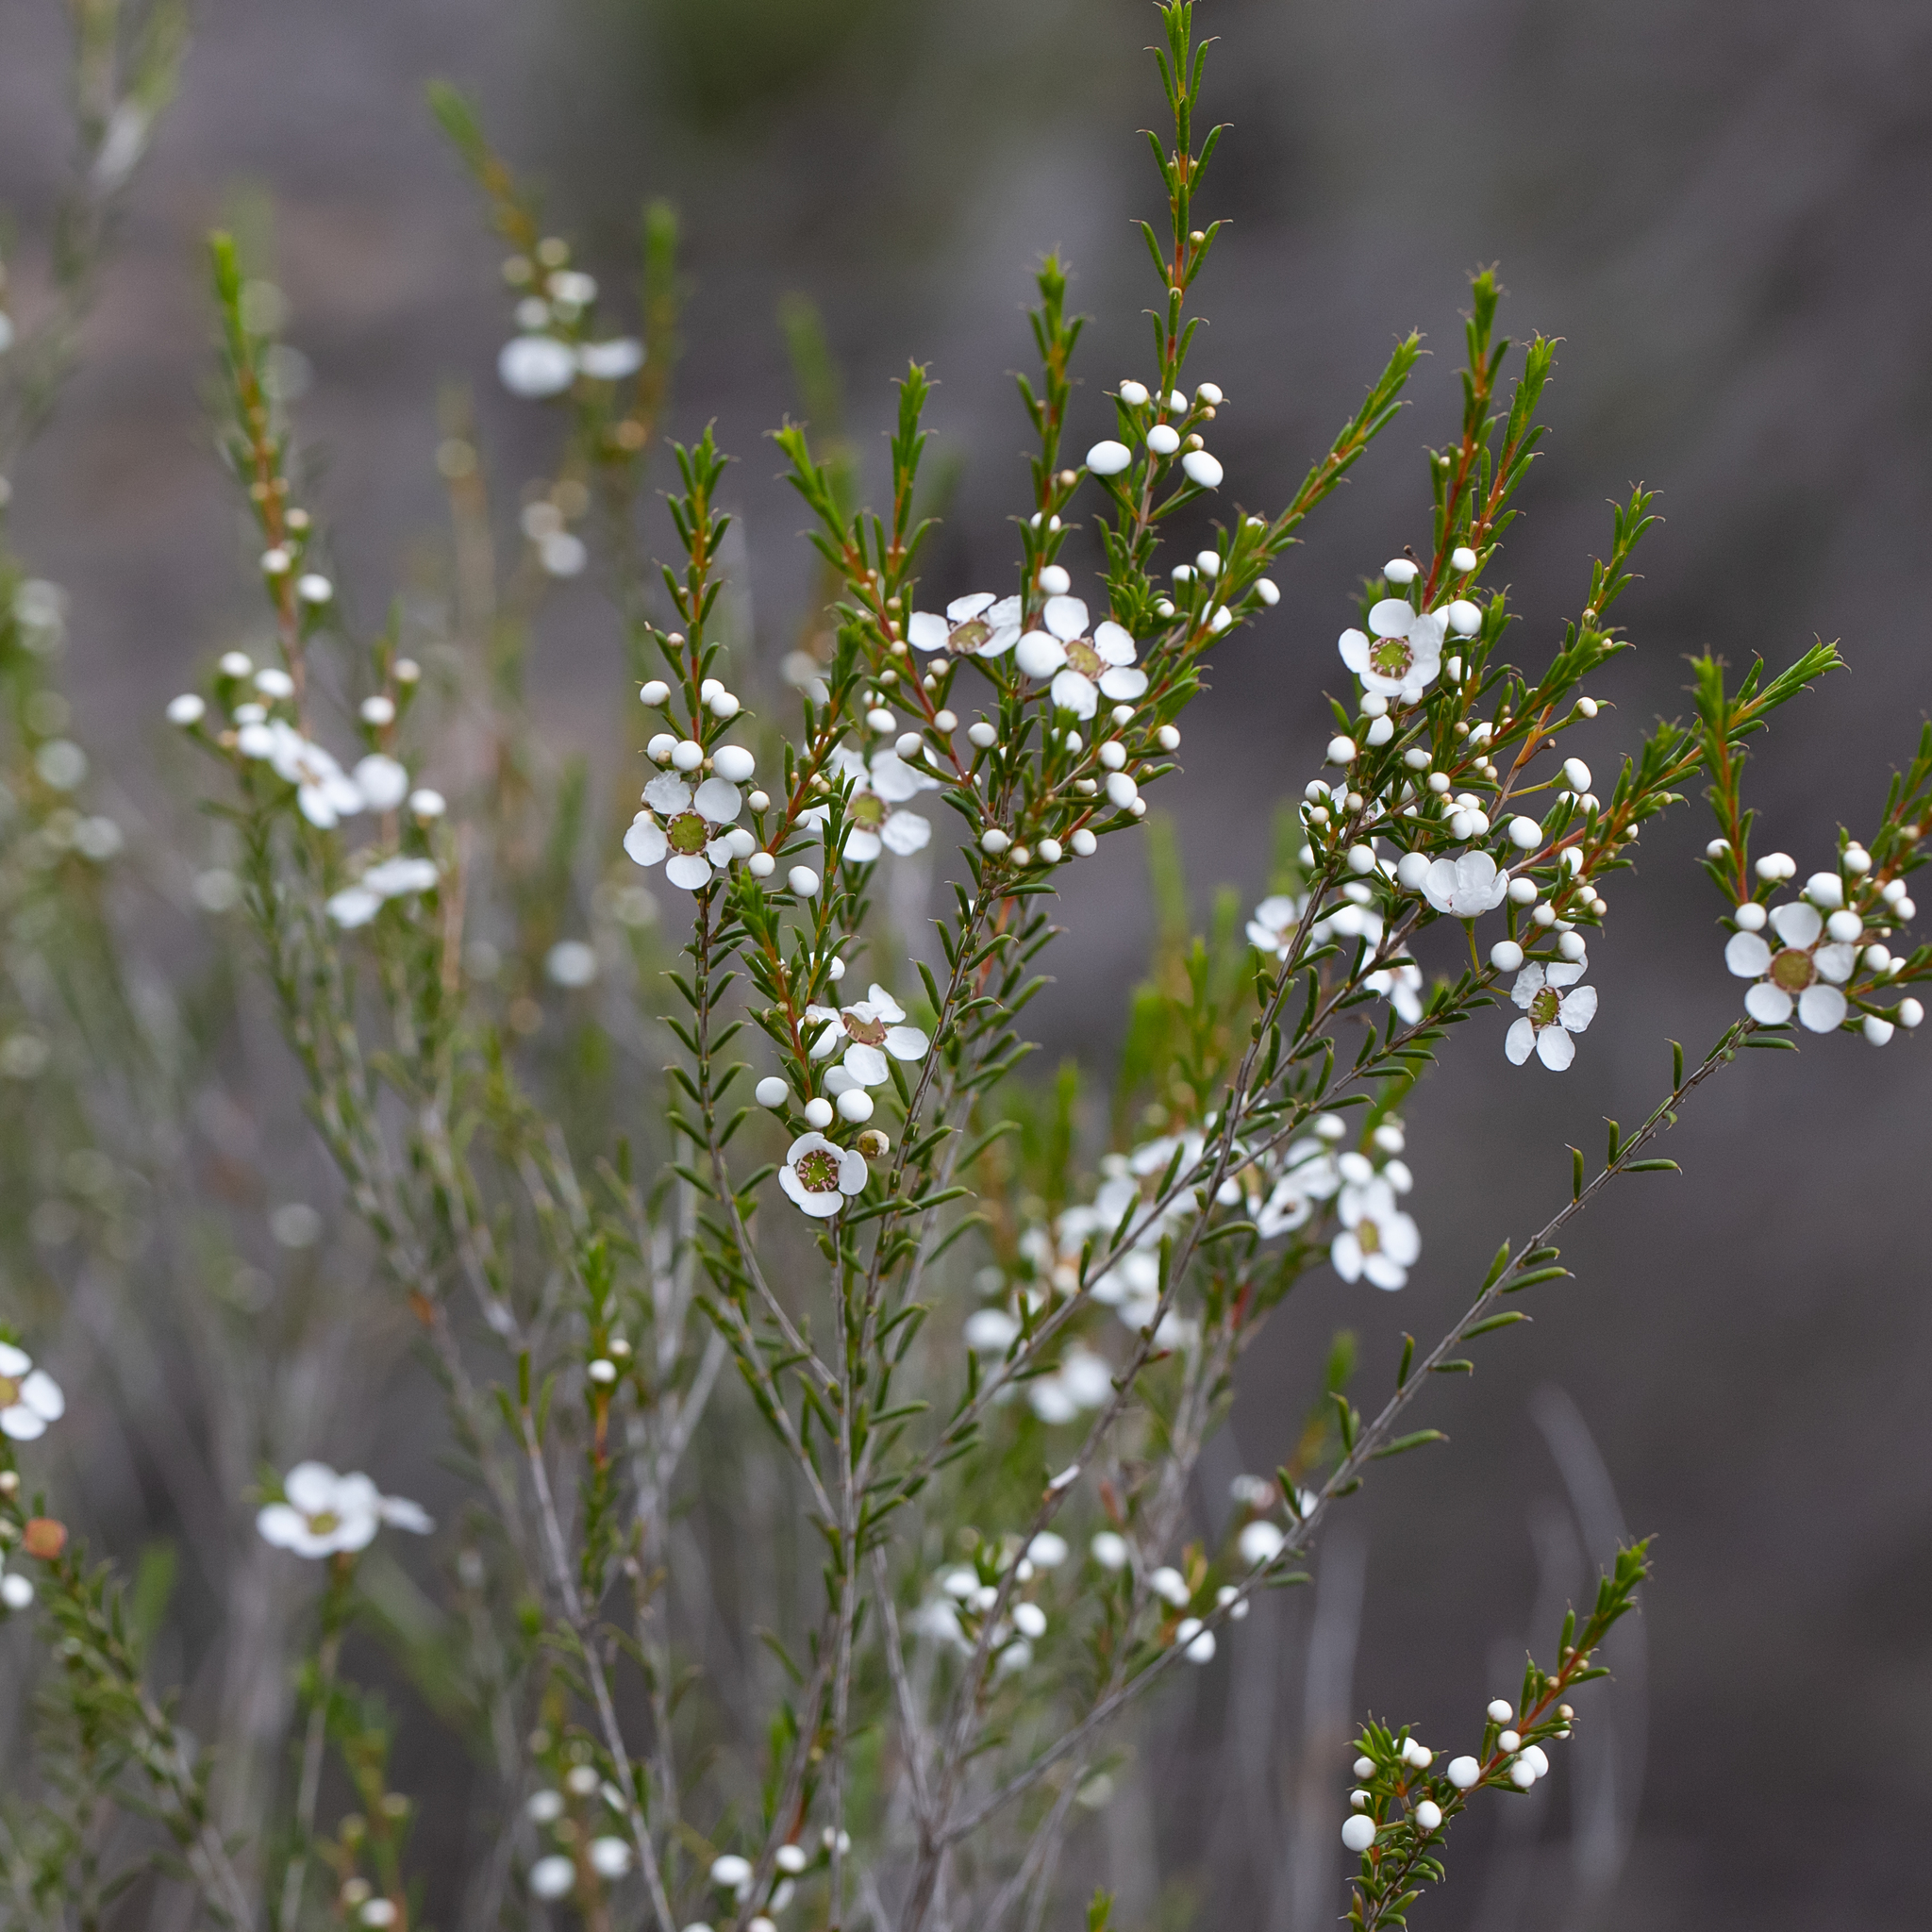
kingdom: Plantae
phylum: Tracheophyta
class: Magnoliopsida
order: Myrtales
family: Myrtaceae
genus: Hysterobaeckea
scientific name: Hysterobaeckea behrii
